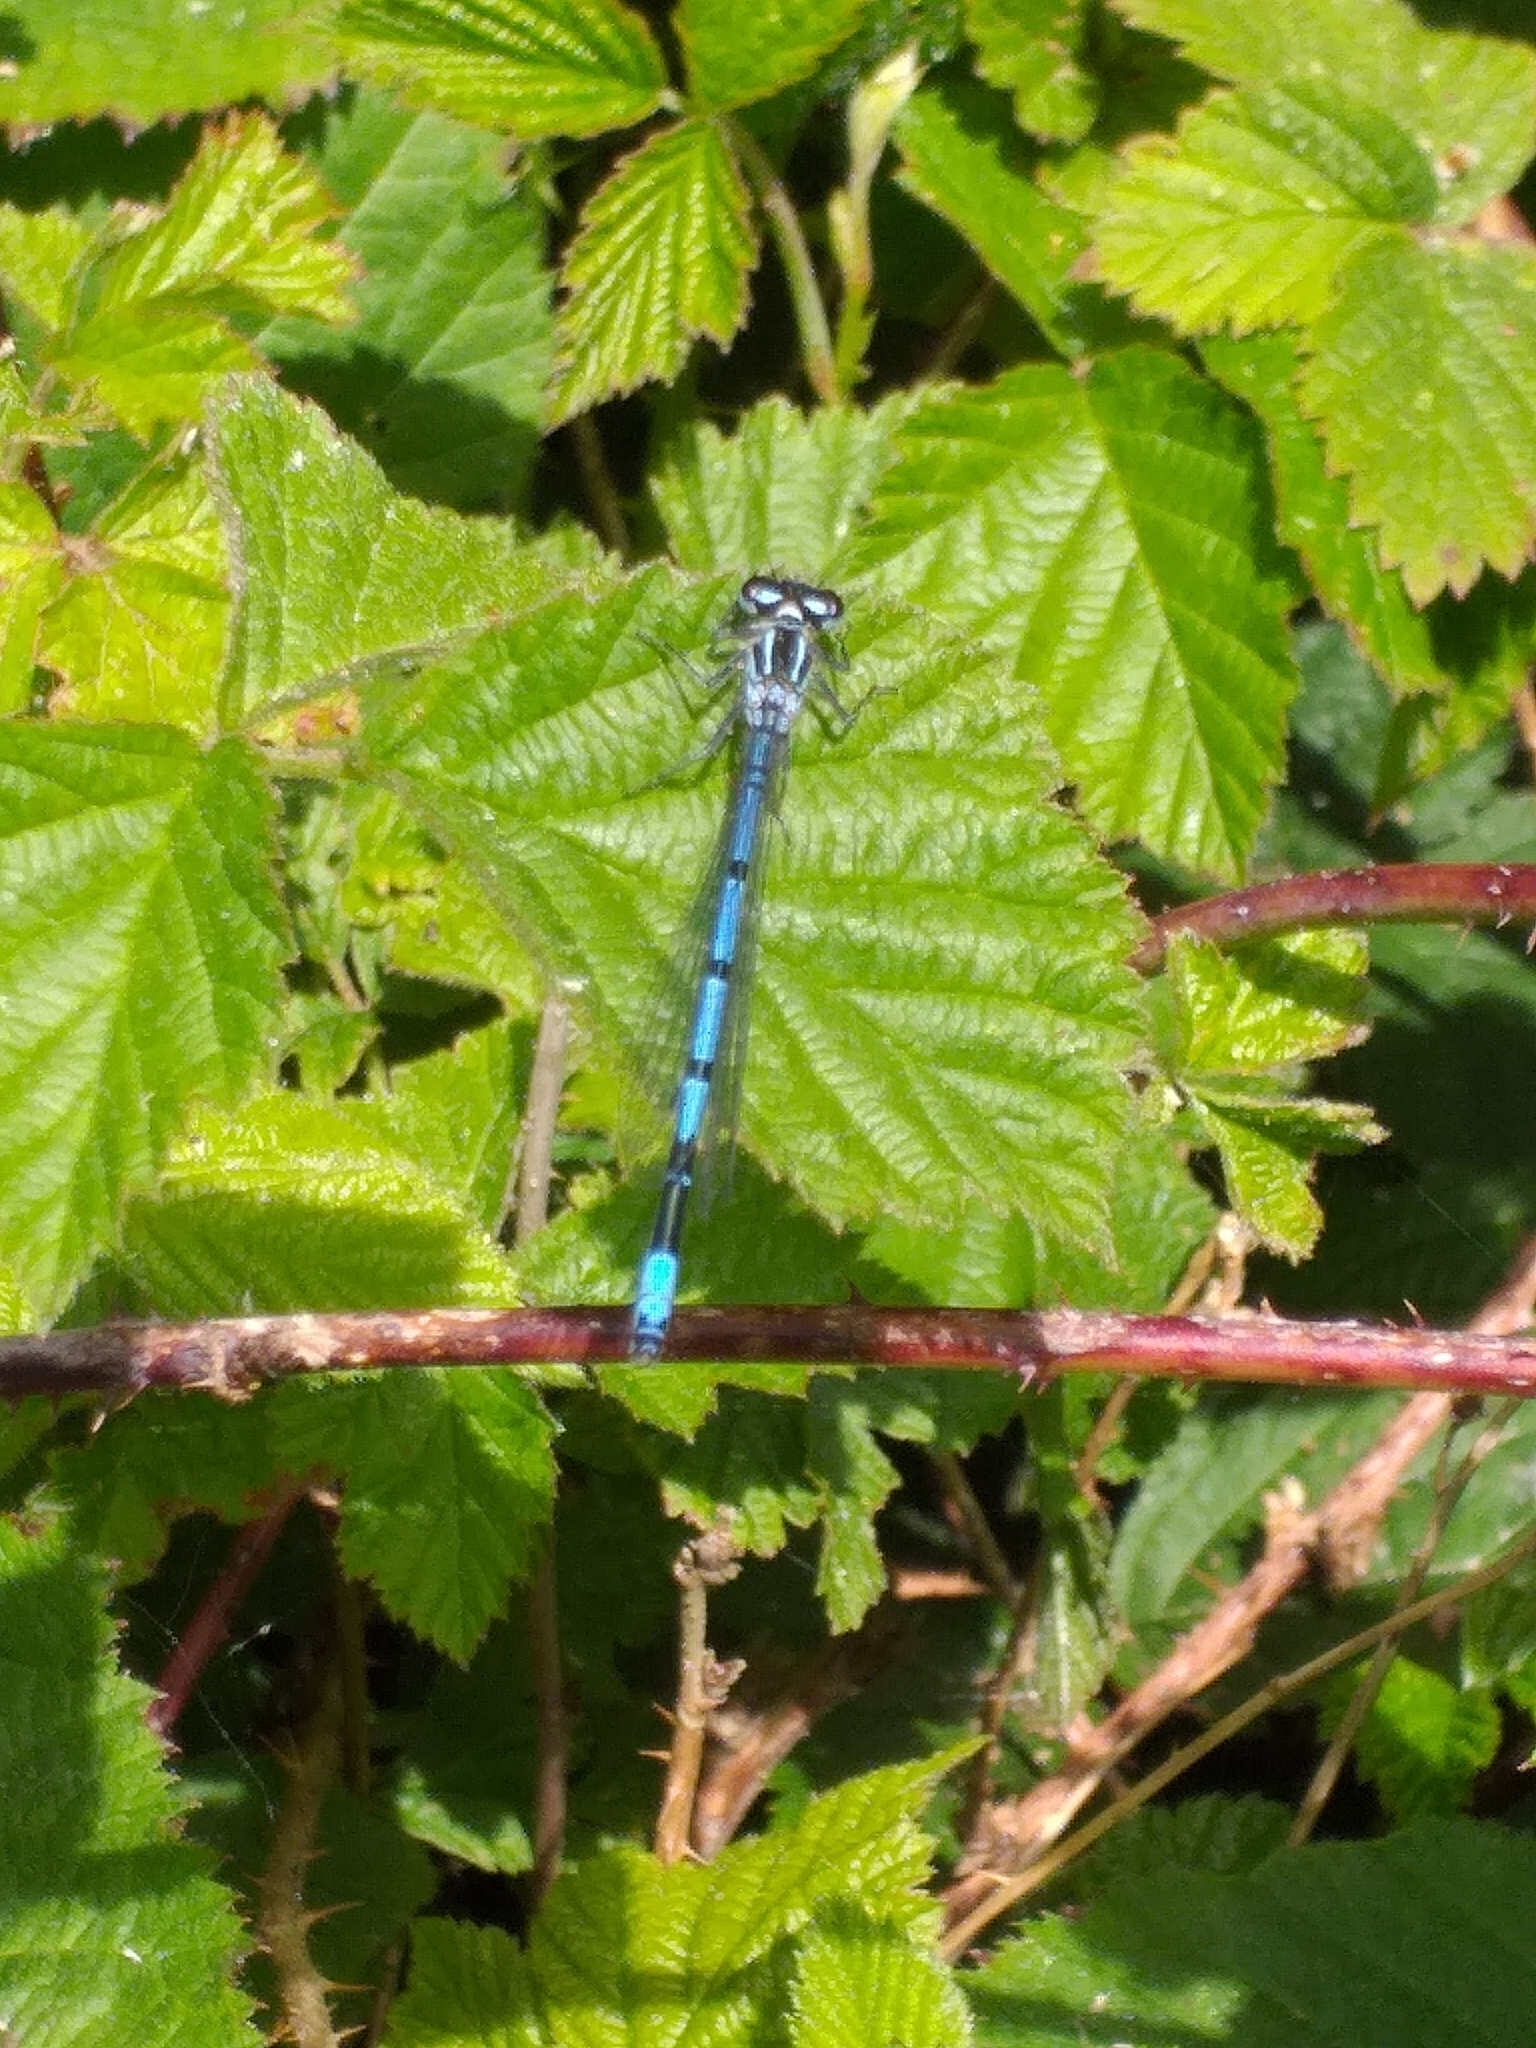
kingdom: Animalia
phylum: Arthropoda
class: Insecta
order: Odonata
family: Coenagrionidae
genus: Coenagrion
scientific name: Coenagrion puella
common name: Azure damselfly
